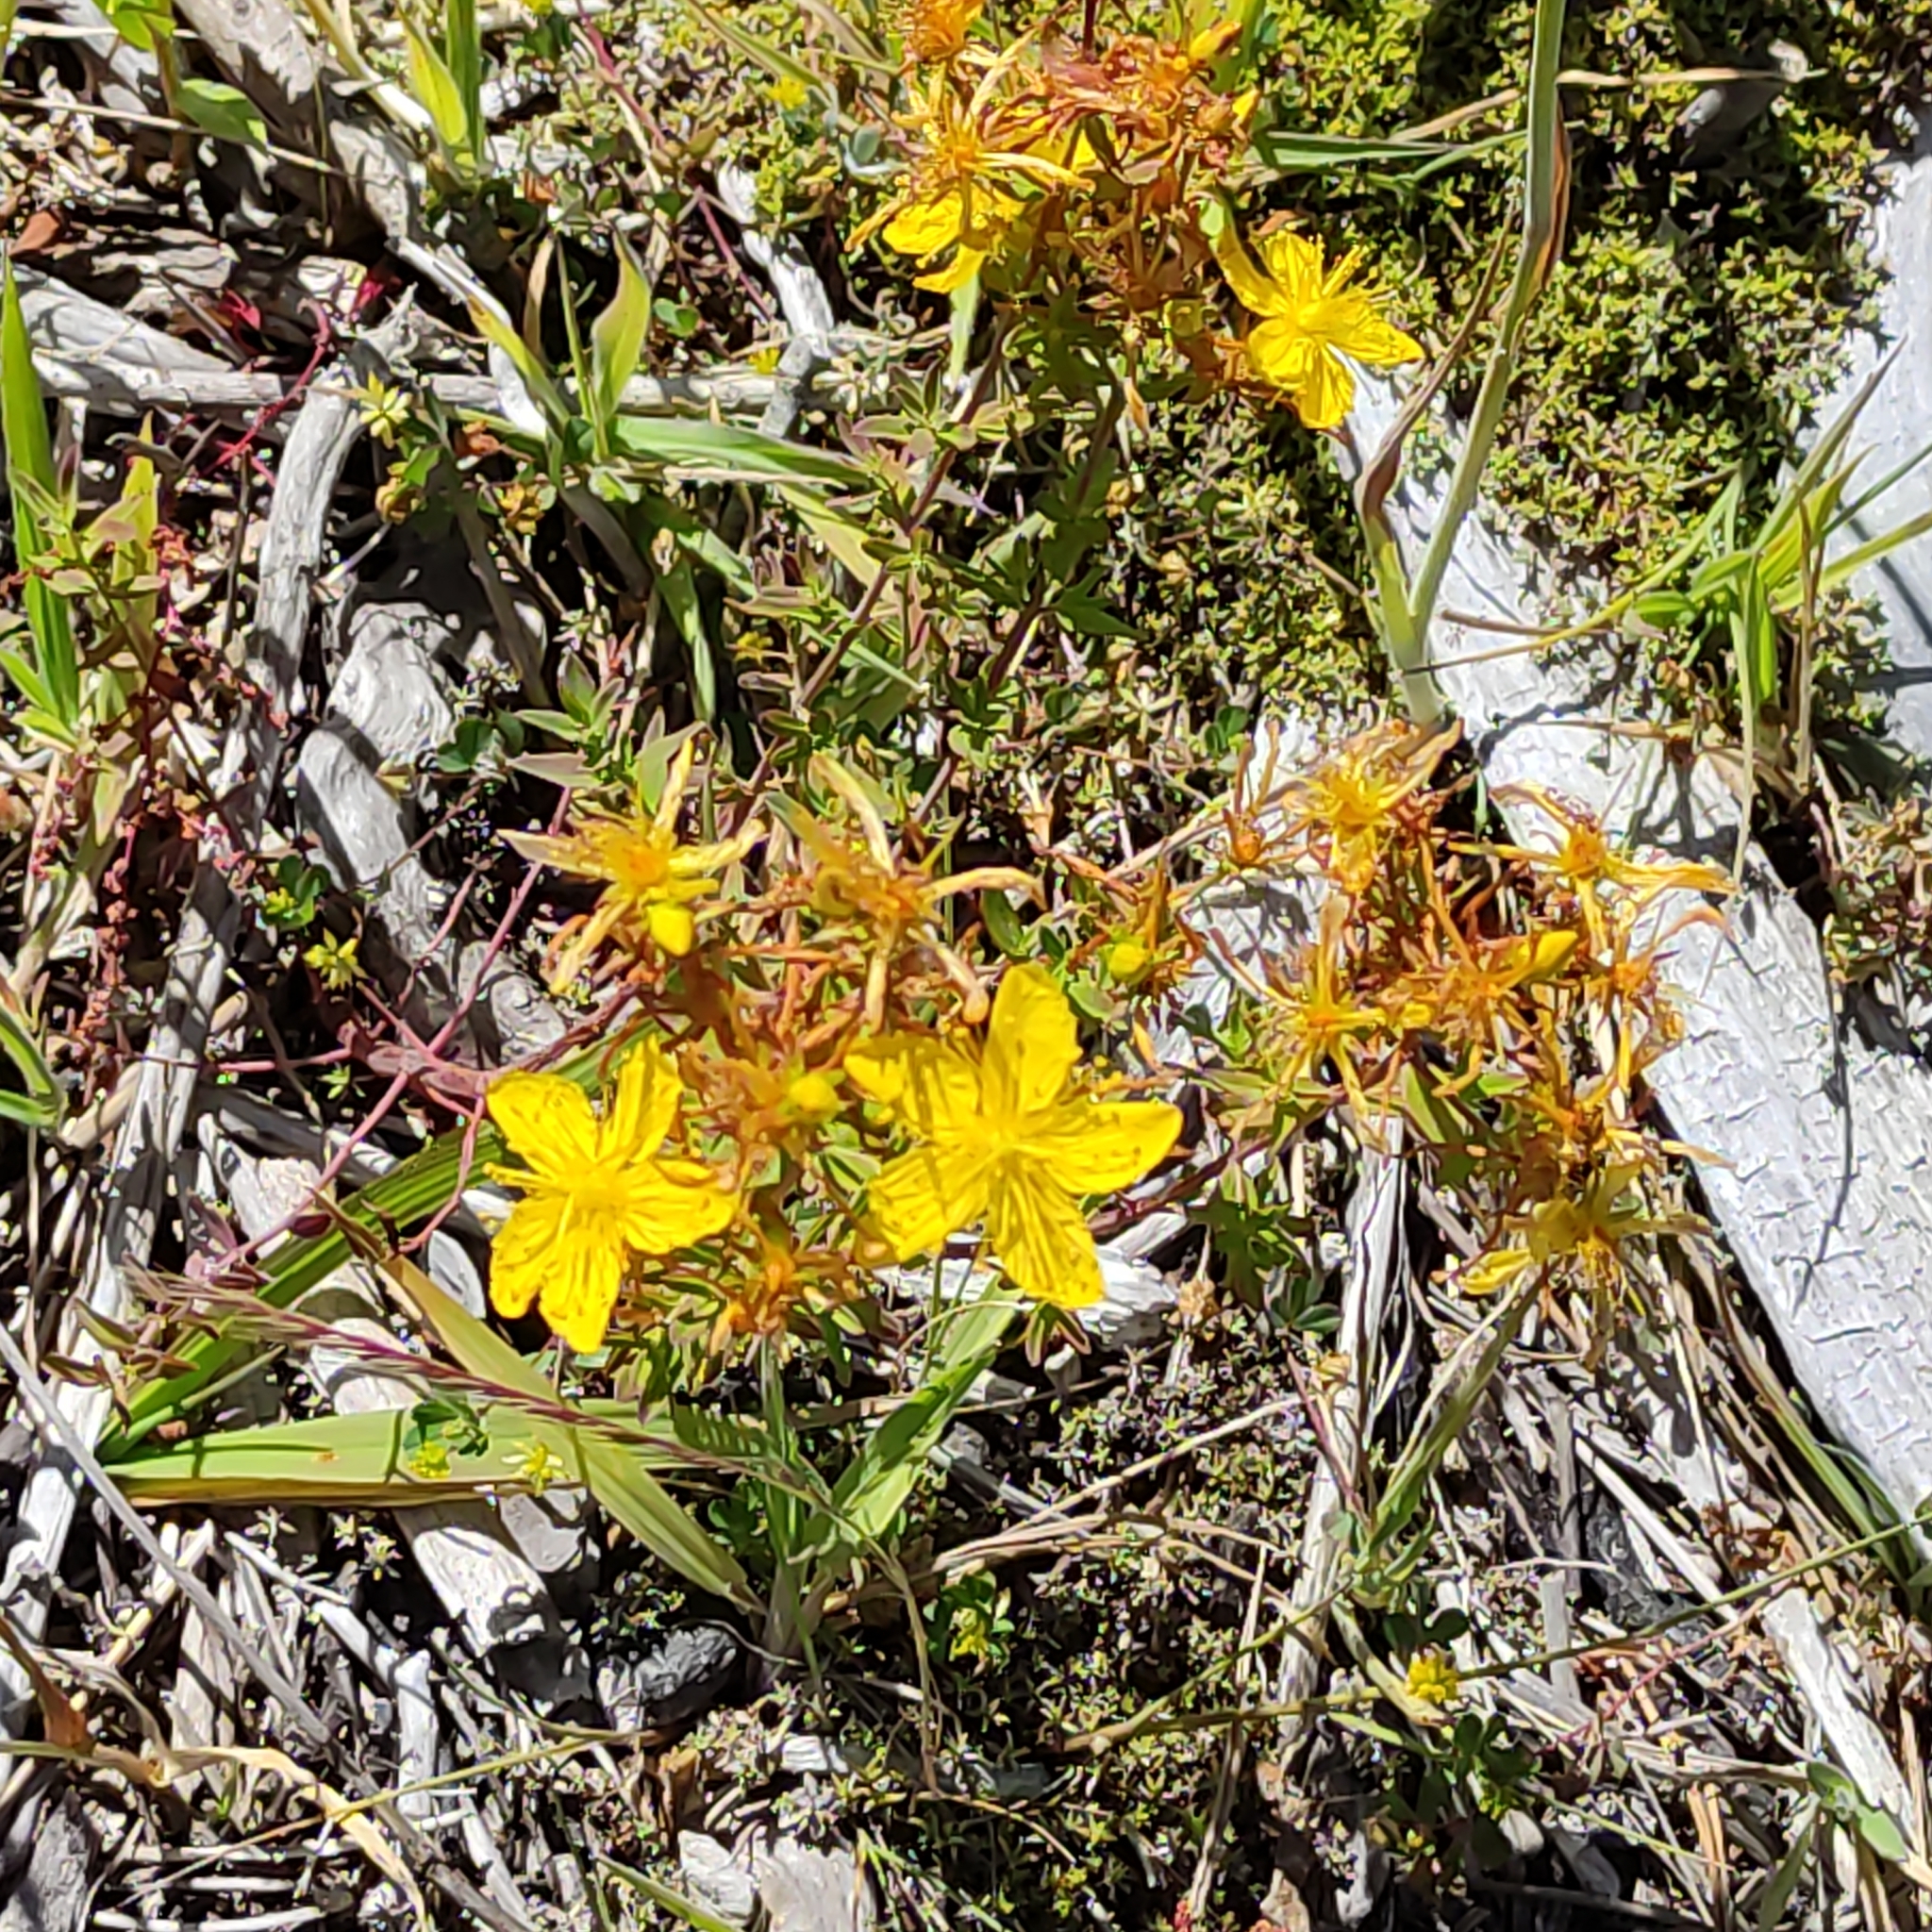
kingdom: Plantae
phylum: Tracheophyta
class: Magnoliopsida
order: Malpighiales
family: Hypericaceae
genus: Hypericum
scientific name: Hypericum perforatum
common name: Common st. johnswort
